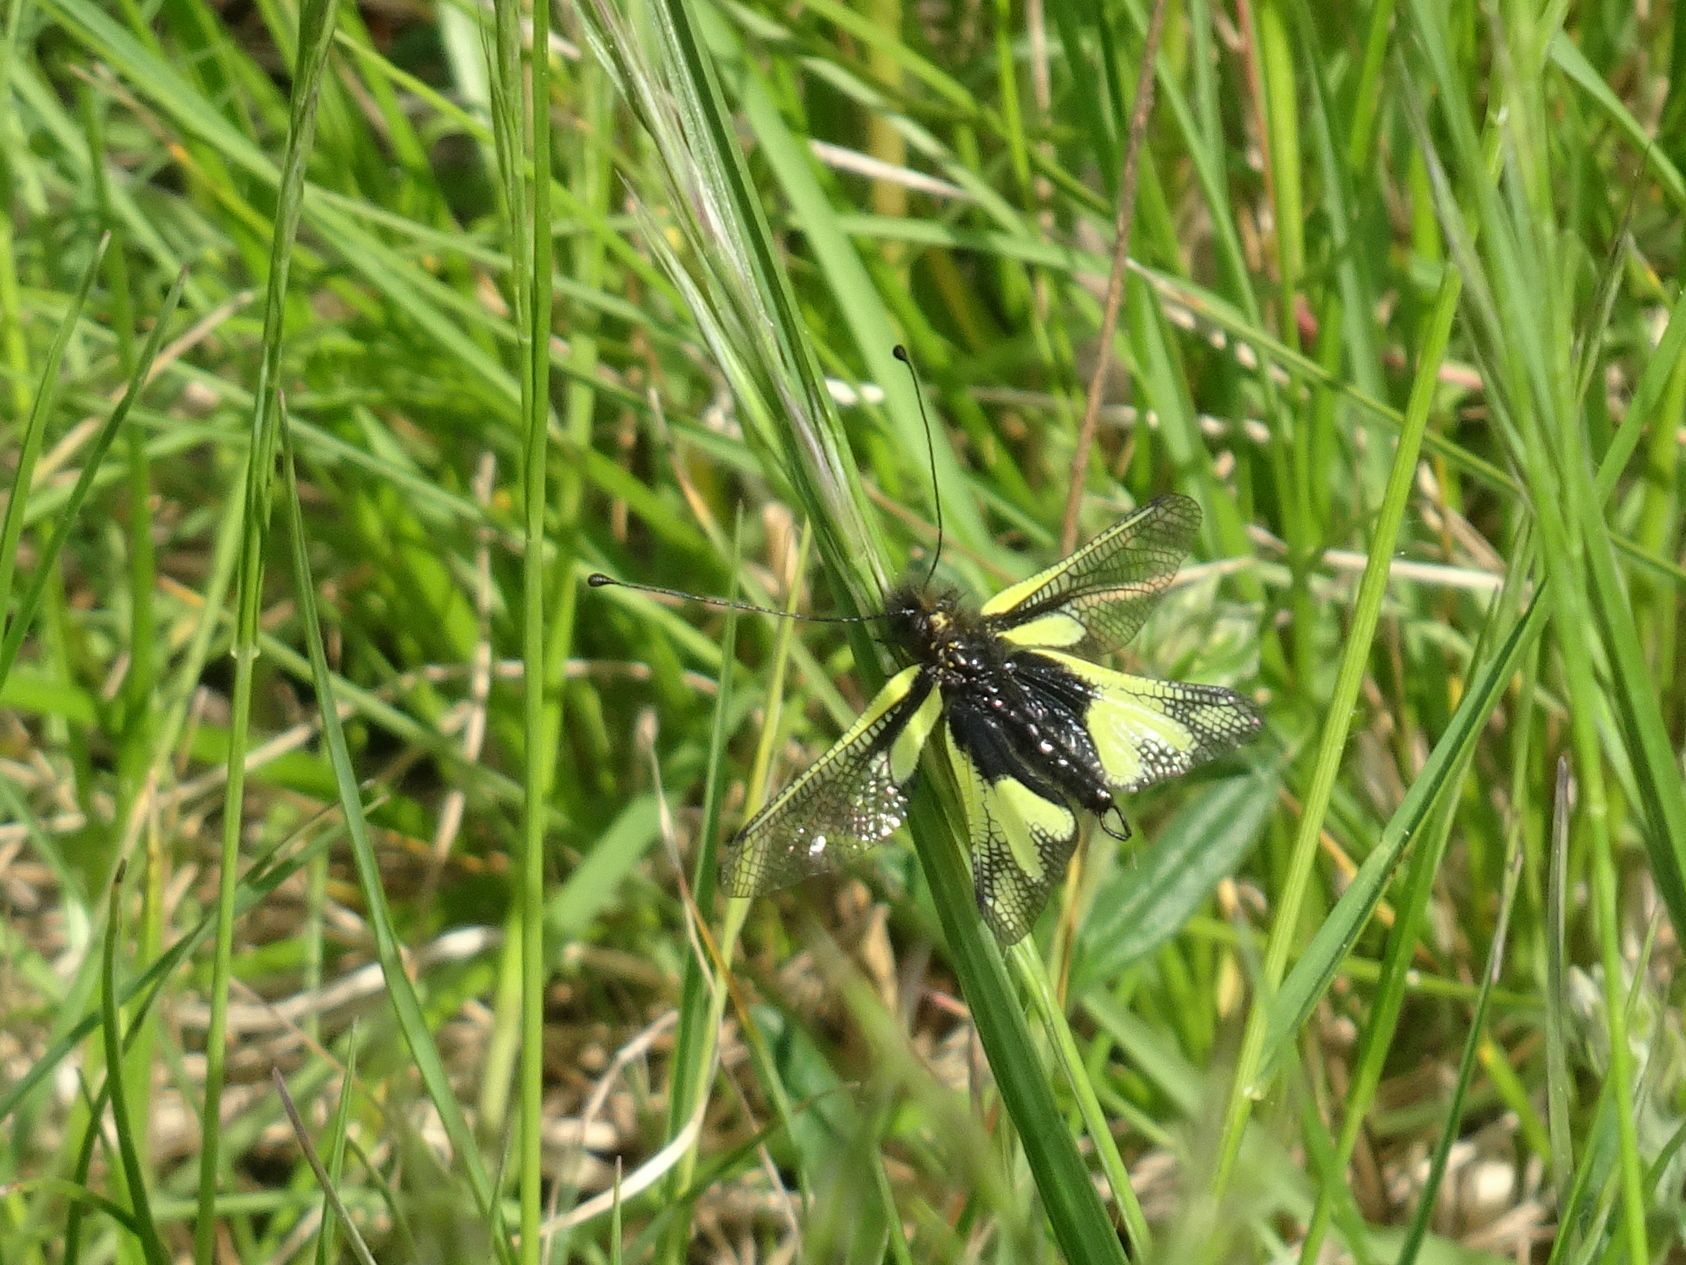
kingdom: Animalia
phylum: Arthropoda
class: Insecta
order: Neuroptera
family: Ascalaphidae
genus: Libelloides
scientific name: Libelloides coccajus
